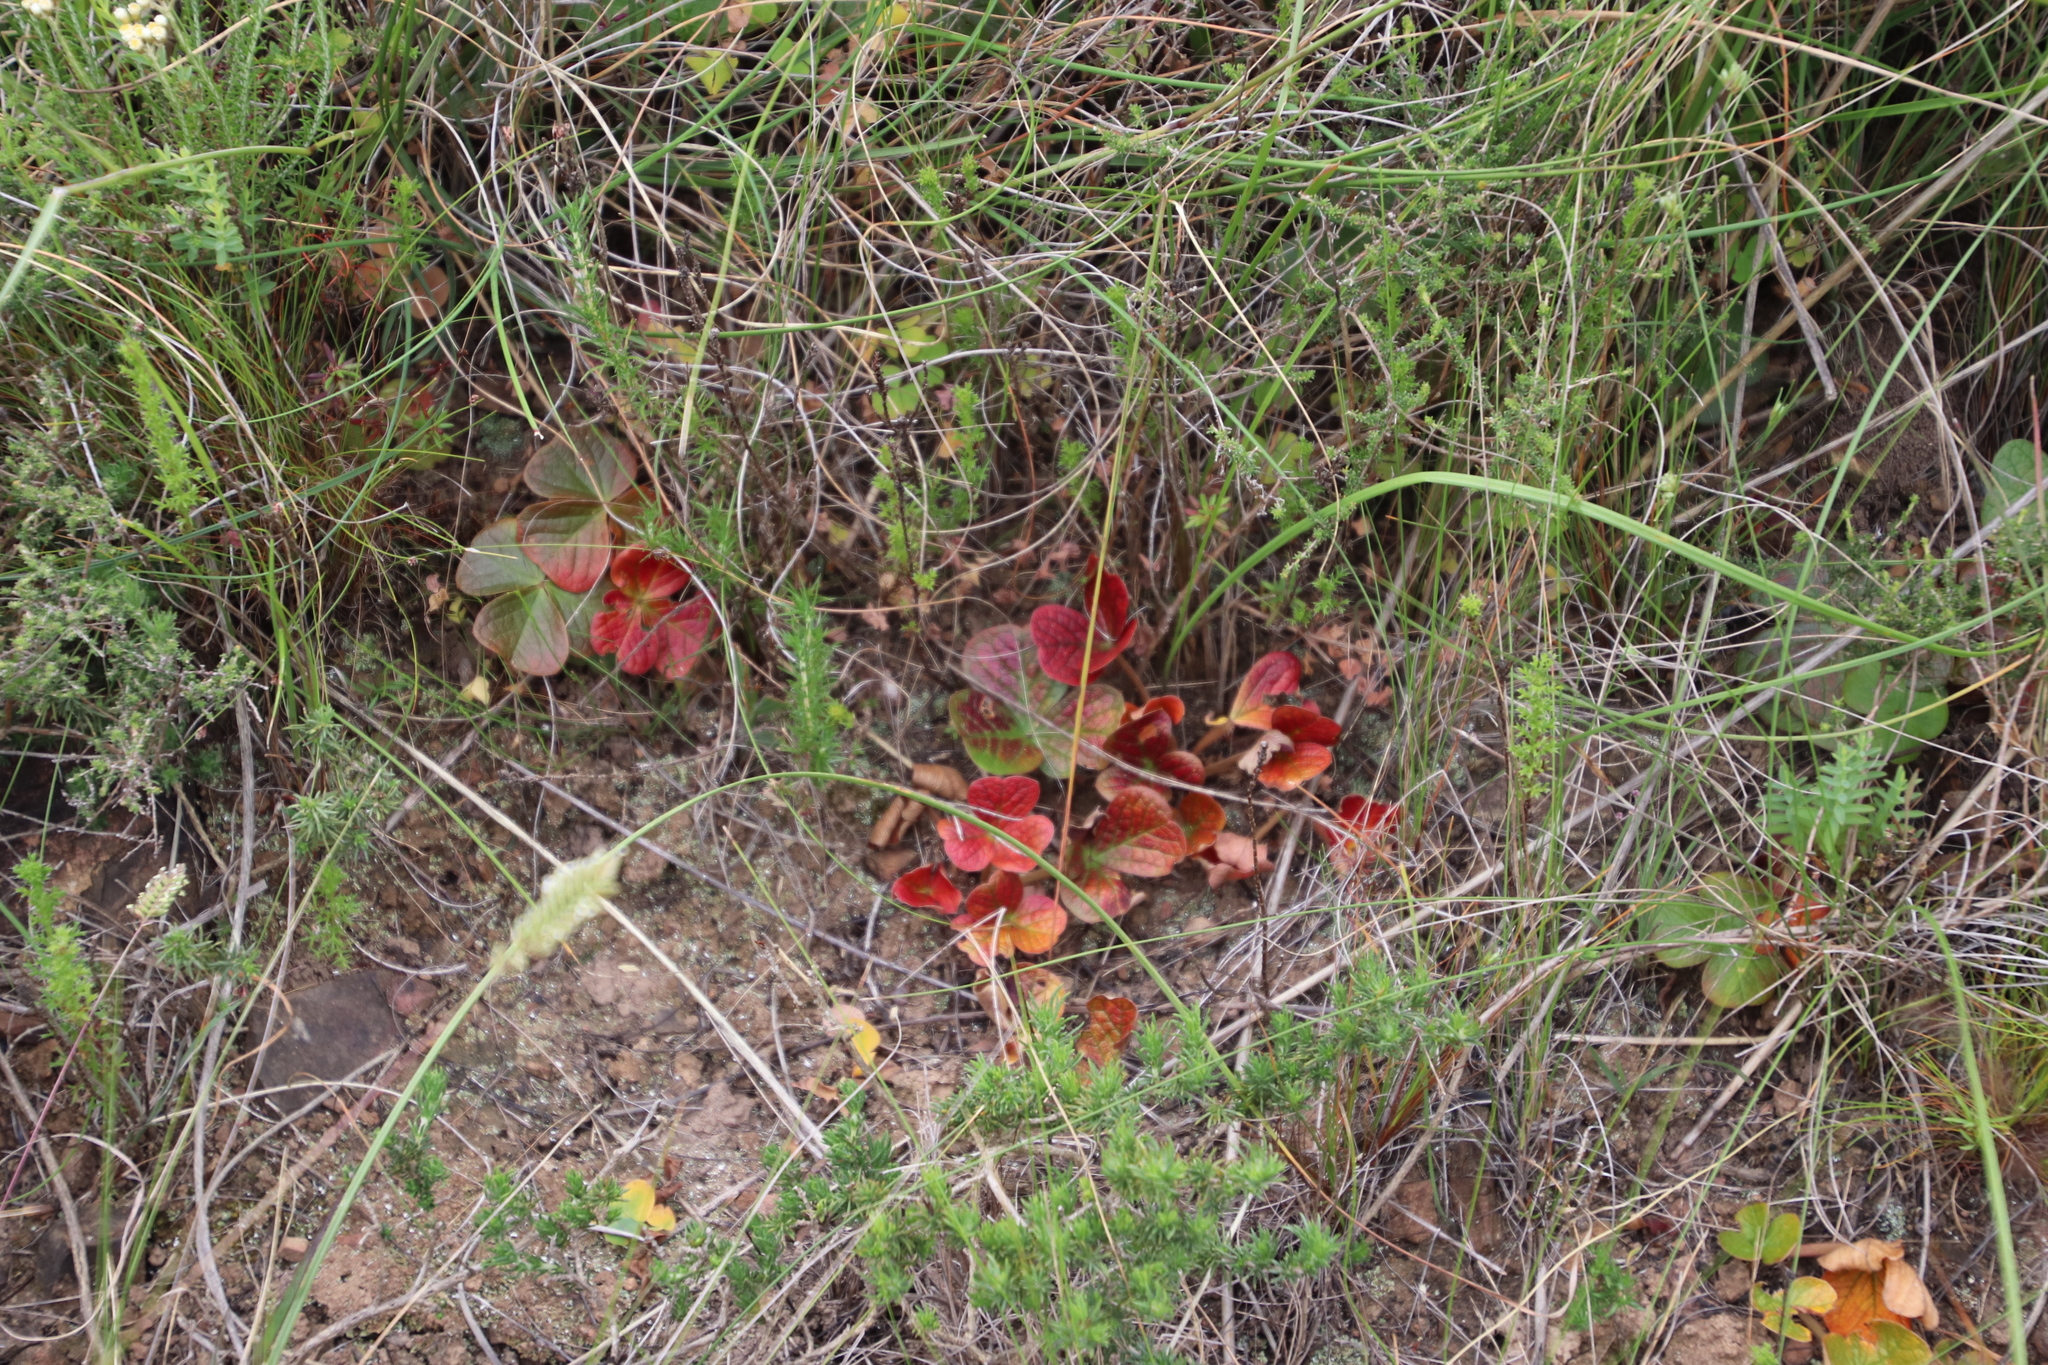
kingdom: Plantae
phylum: Tracheophyta
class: Magnoliopsida
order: Oxalidales
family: Oxalidaceae
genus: Oxalis
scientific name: Oxalis truncatula
